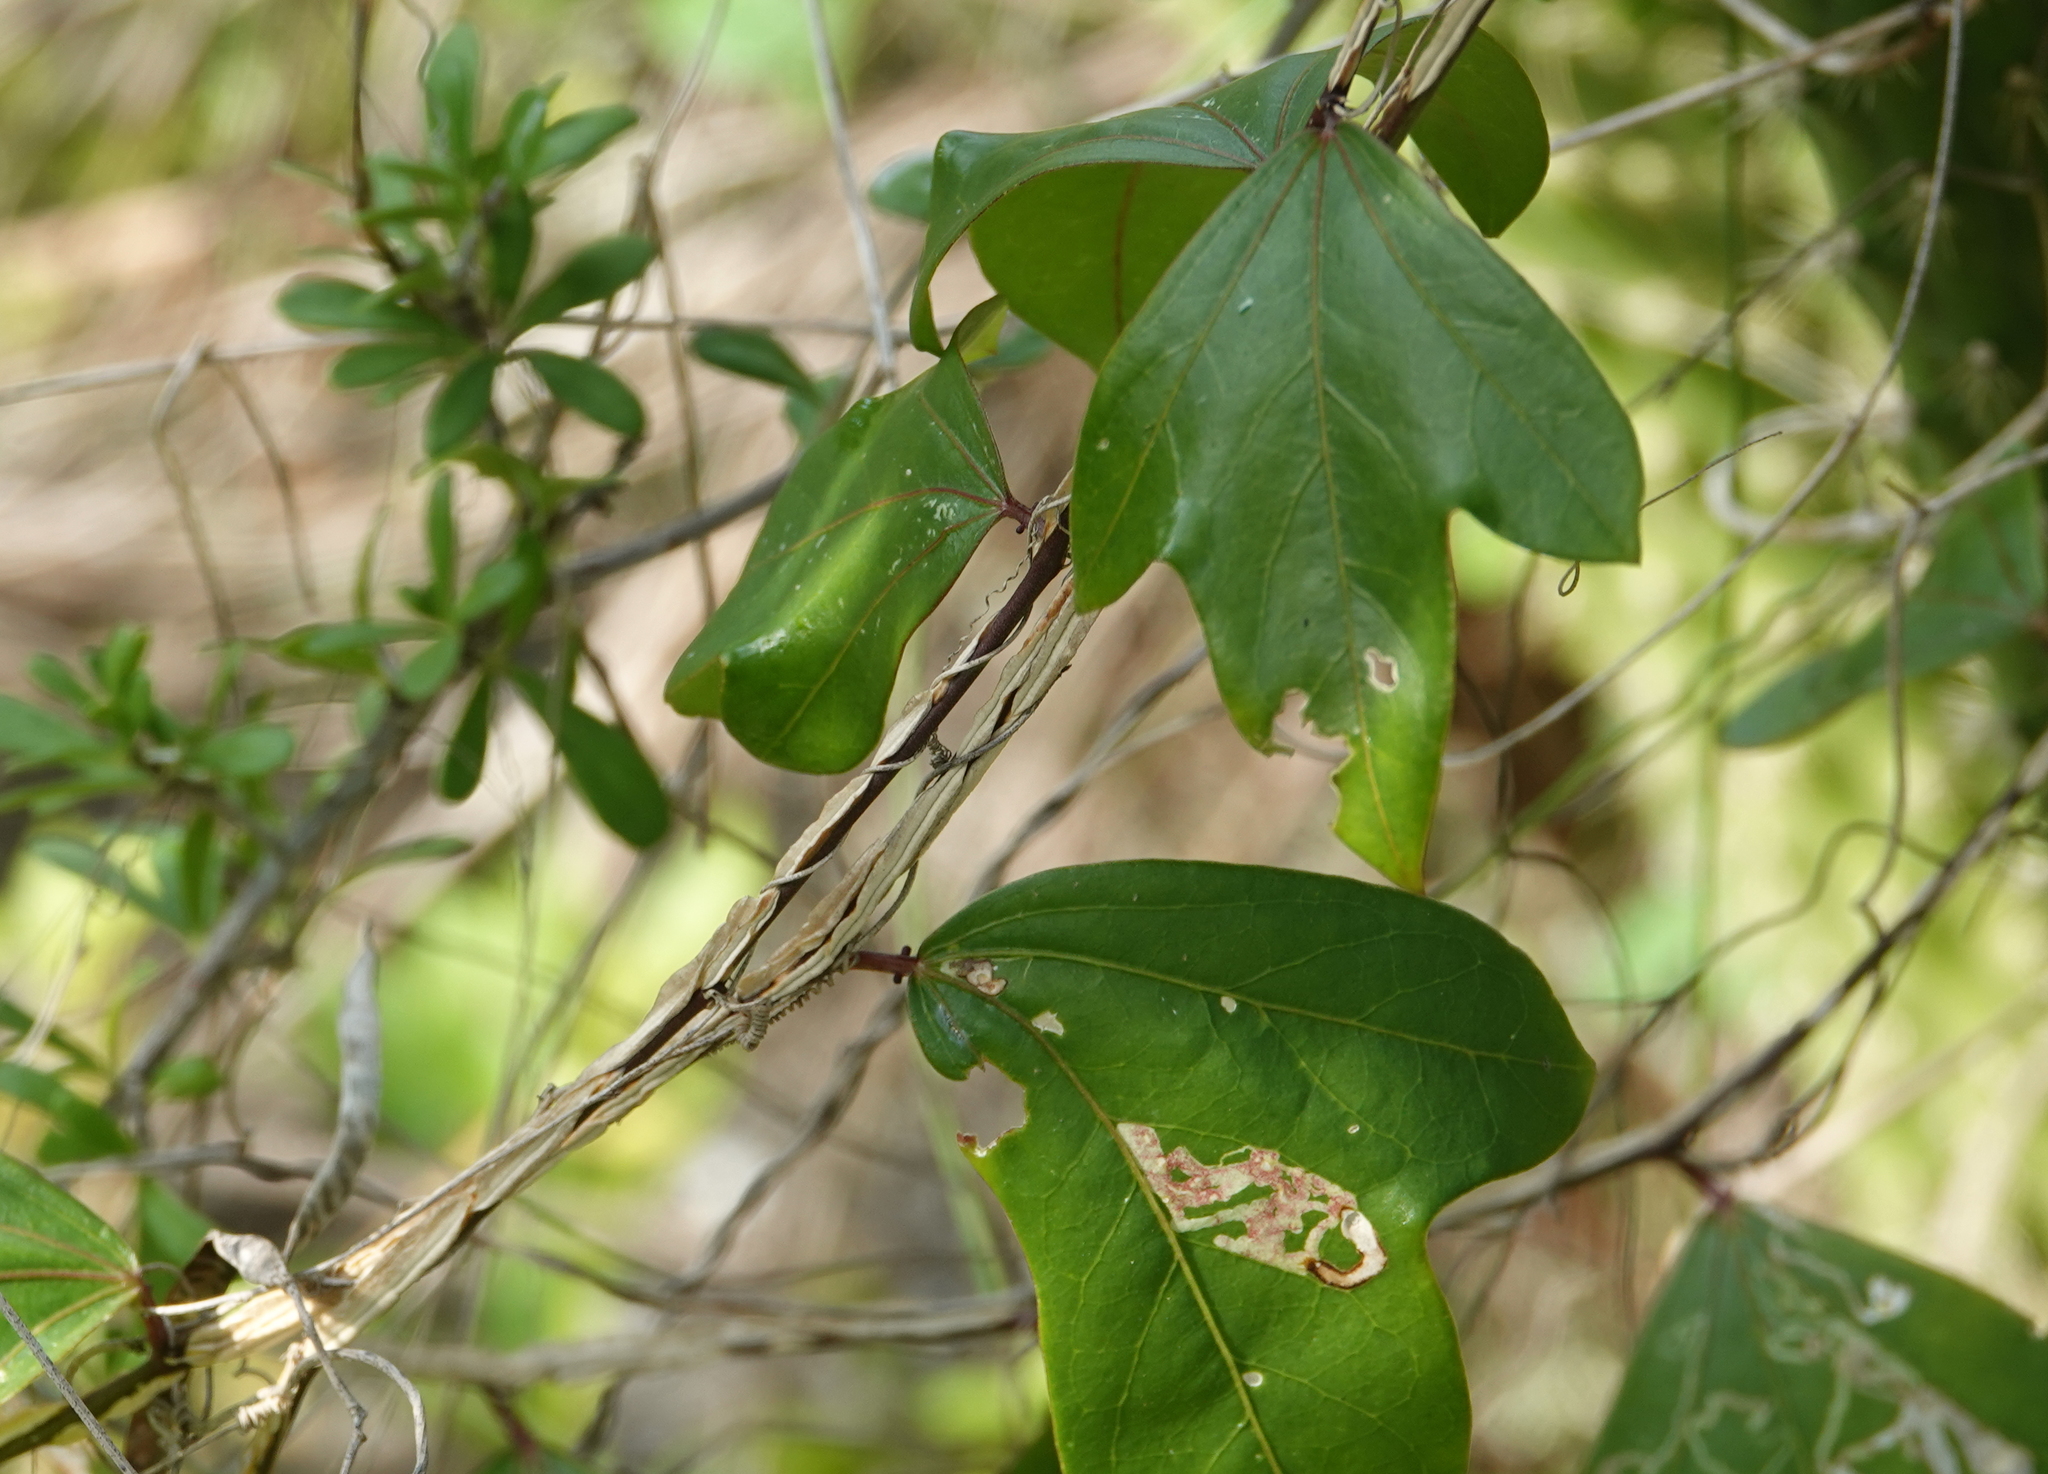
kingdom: Plantae
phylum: Tracheophyta
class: Magnoliopsida
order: Malpighiales
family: Passifloraceae
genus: Passiflora
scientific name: Passiflora pallida
